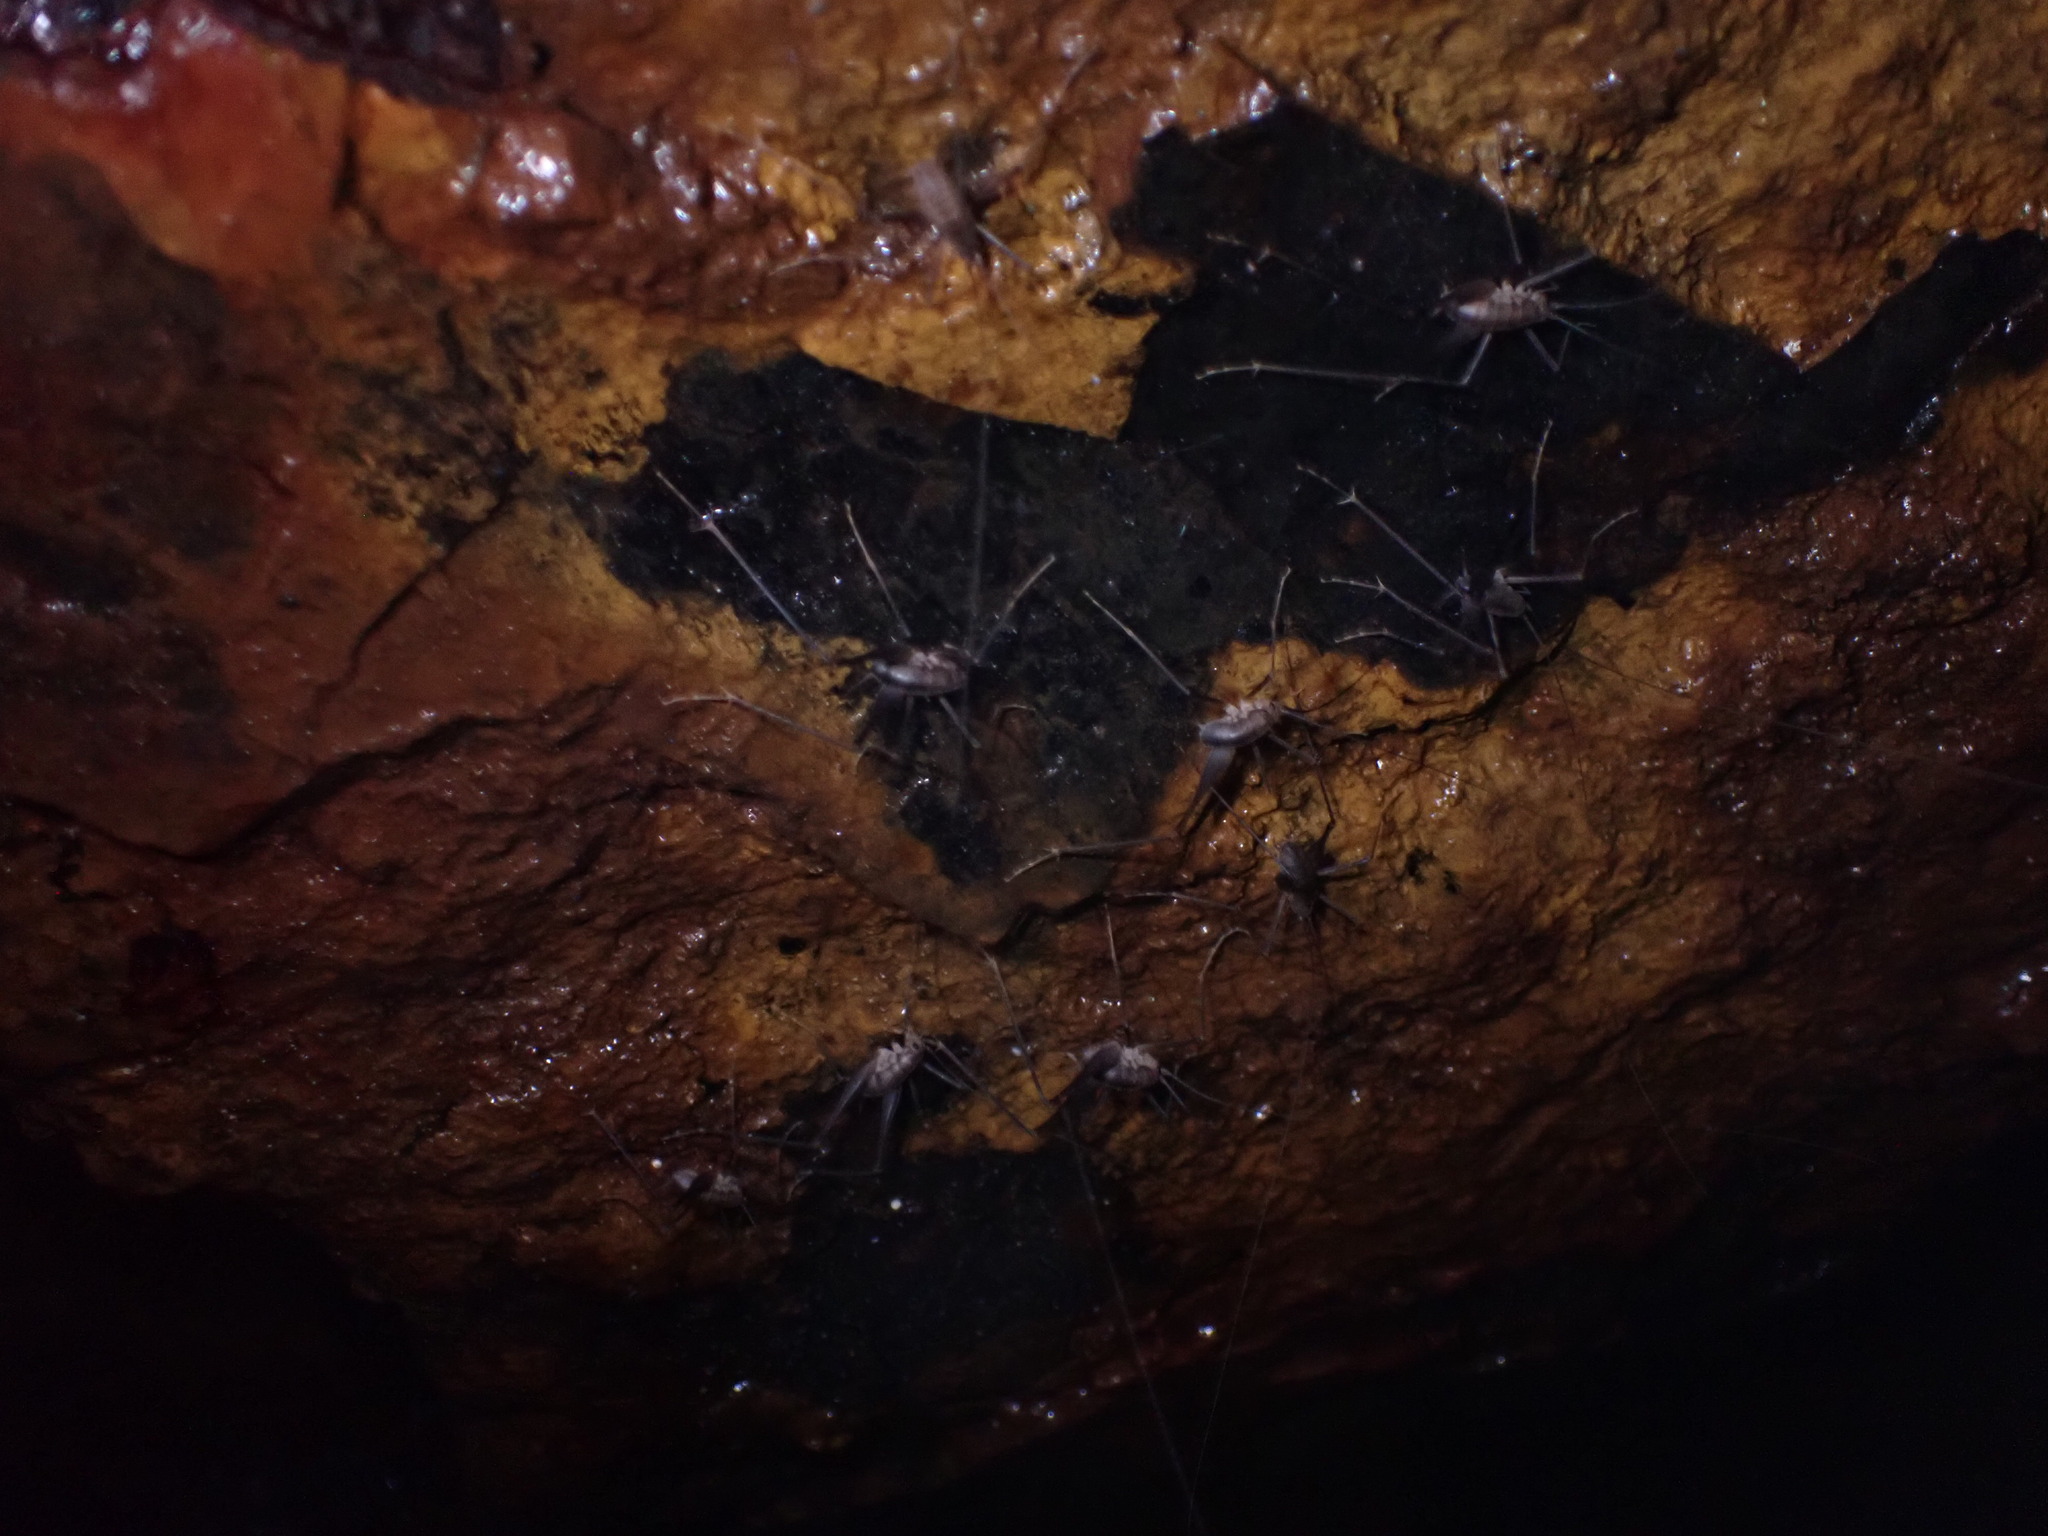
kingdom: Animalia
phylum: Arthropoda
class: Insecta
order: Orthoptera
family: Rhaphidophoridae
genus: Euhadenoecus
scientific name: Euhadenoecus insolitus
